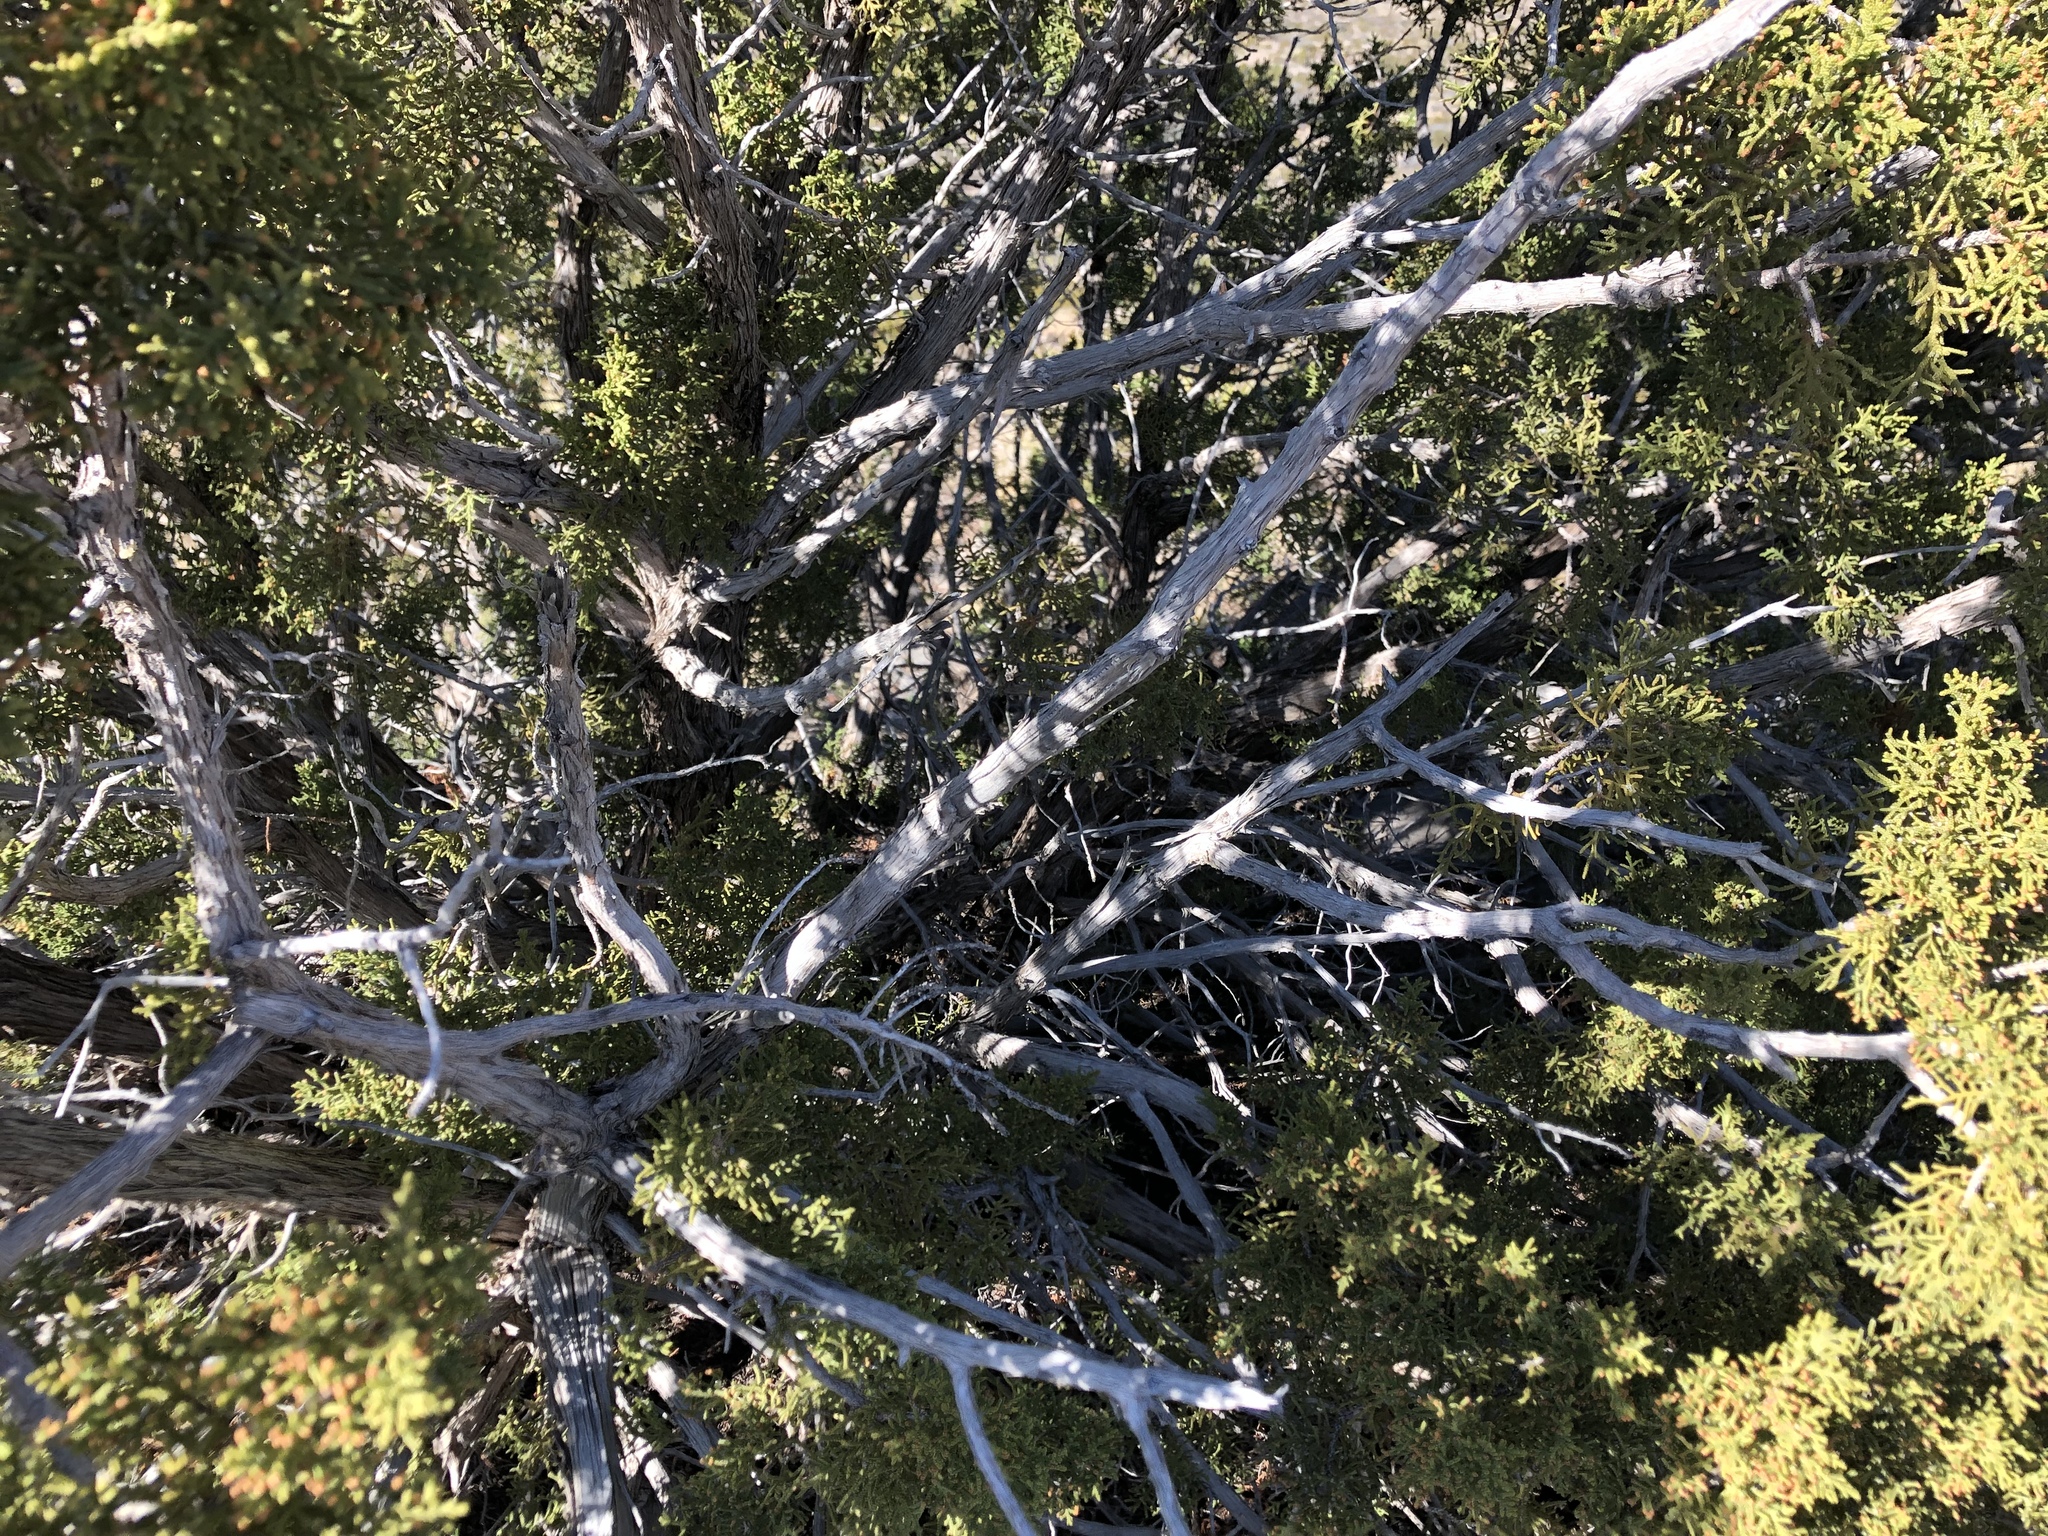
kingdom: Plantae
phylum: Tracheophyta
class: Pinopsida
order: Pinales
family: Cupressaceae
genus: Juniperus
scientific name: Juniperus monosperma
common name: One-seed juniper
